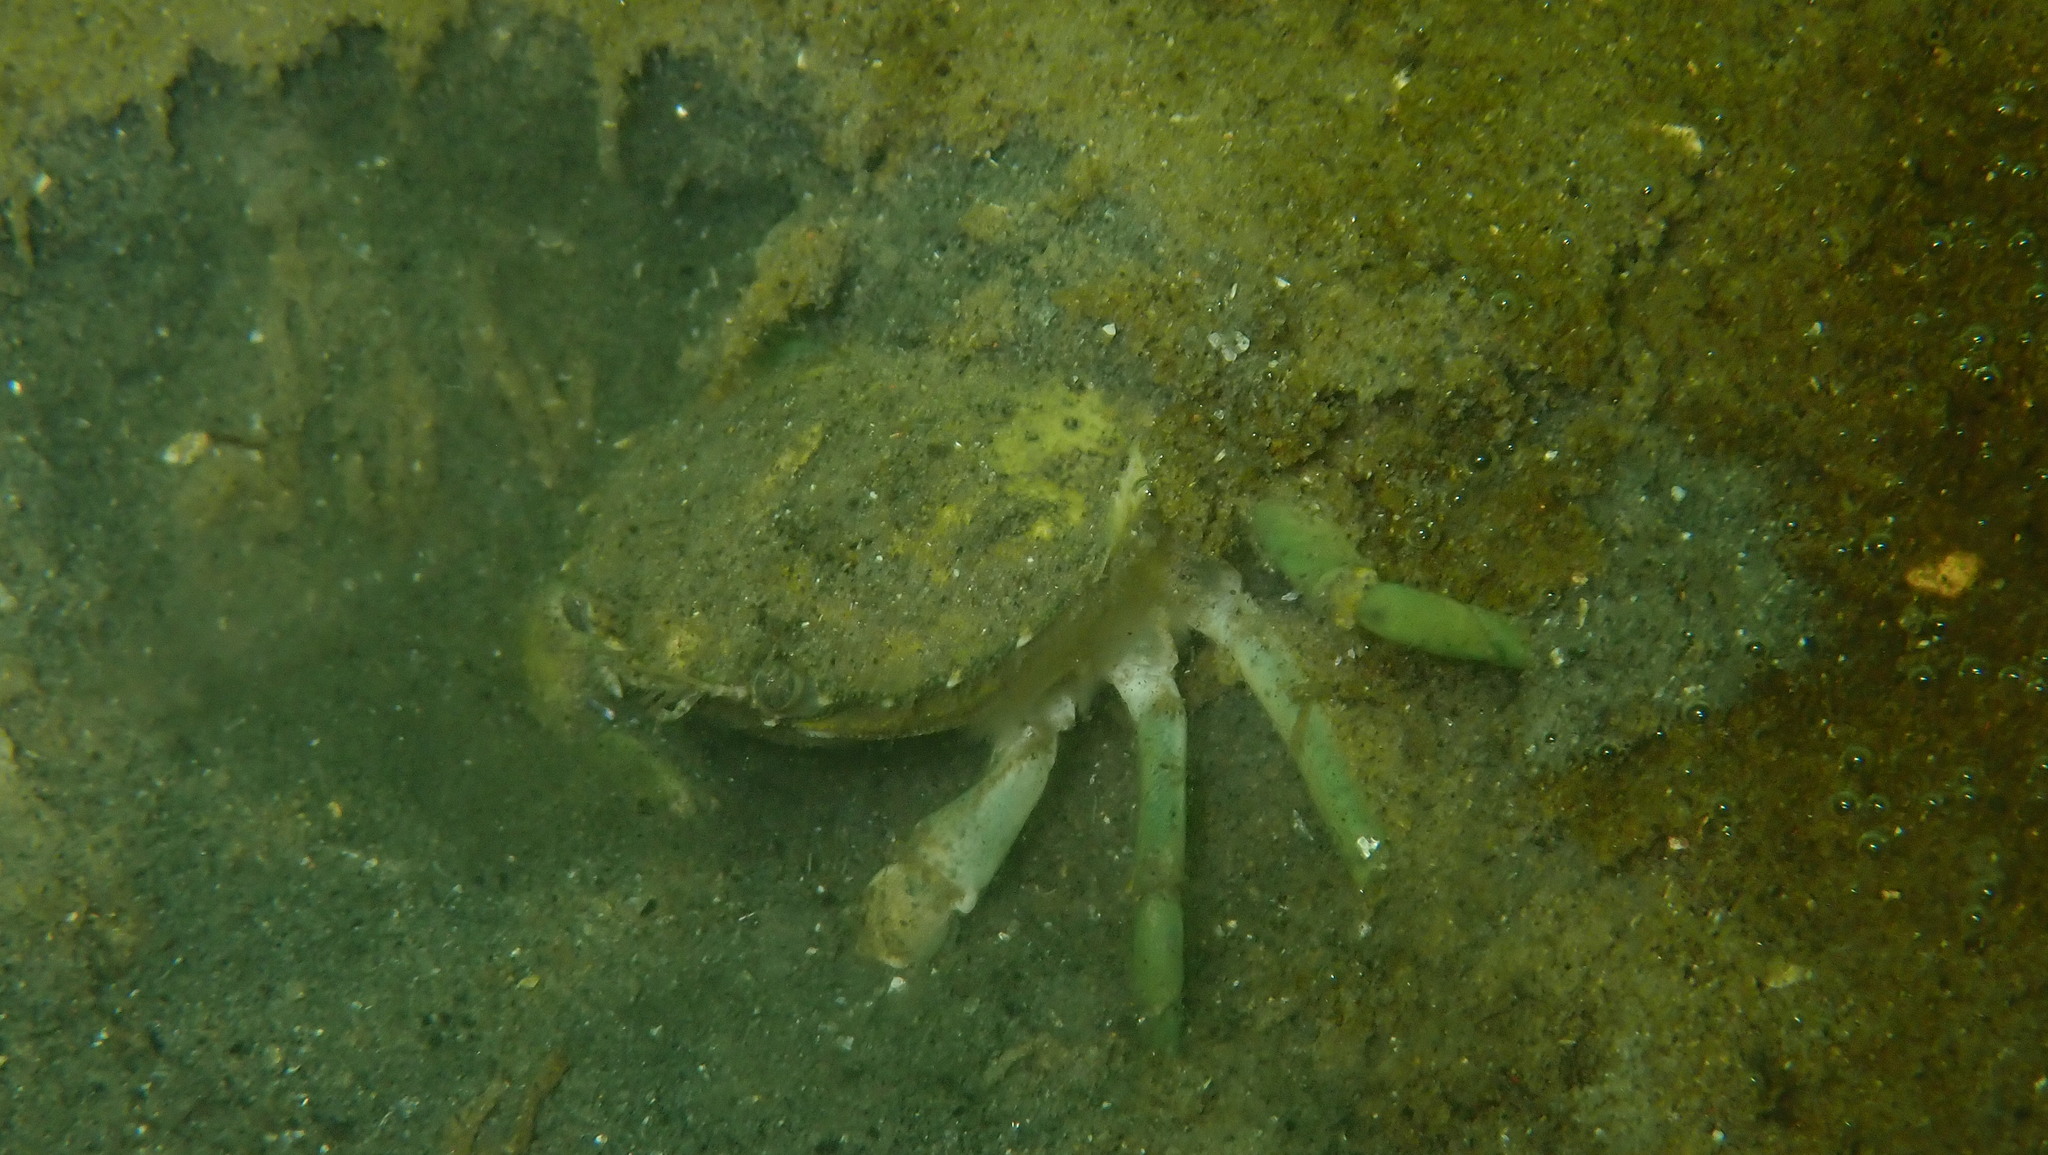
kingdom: Animalia
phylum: Arthropoda
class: Malacostraca
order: Decapoda
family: Carcinidae
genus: Carcinus
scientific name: Carcinus maenas
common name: European green crab
